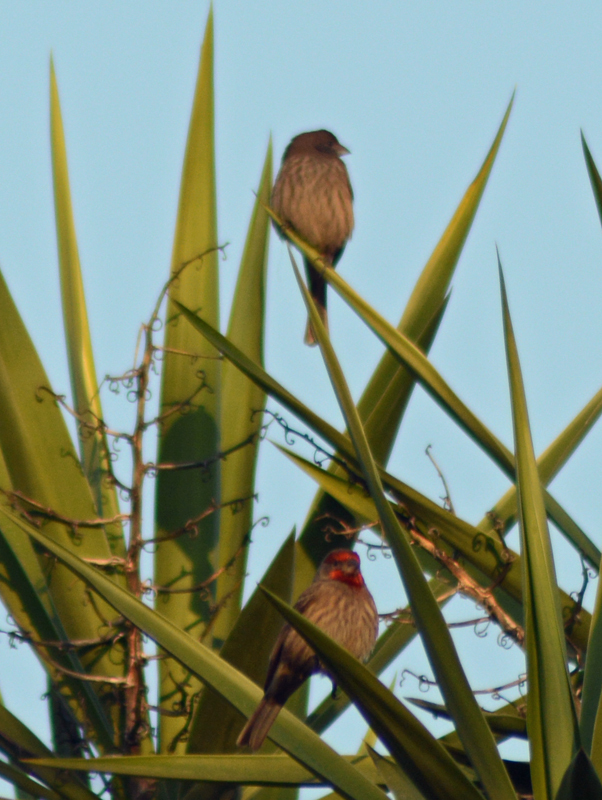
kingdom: Animalia
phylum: Chordata
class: Aves
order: Passeriformes
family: Fringillidae
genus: Haemorhous
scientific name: Haemorhous mexicanus
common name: House finch
